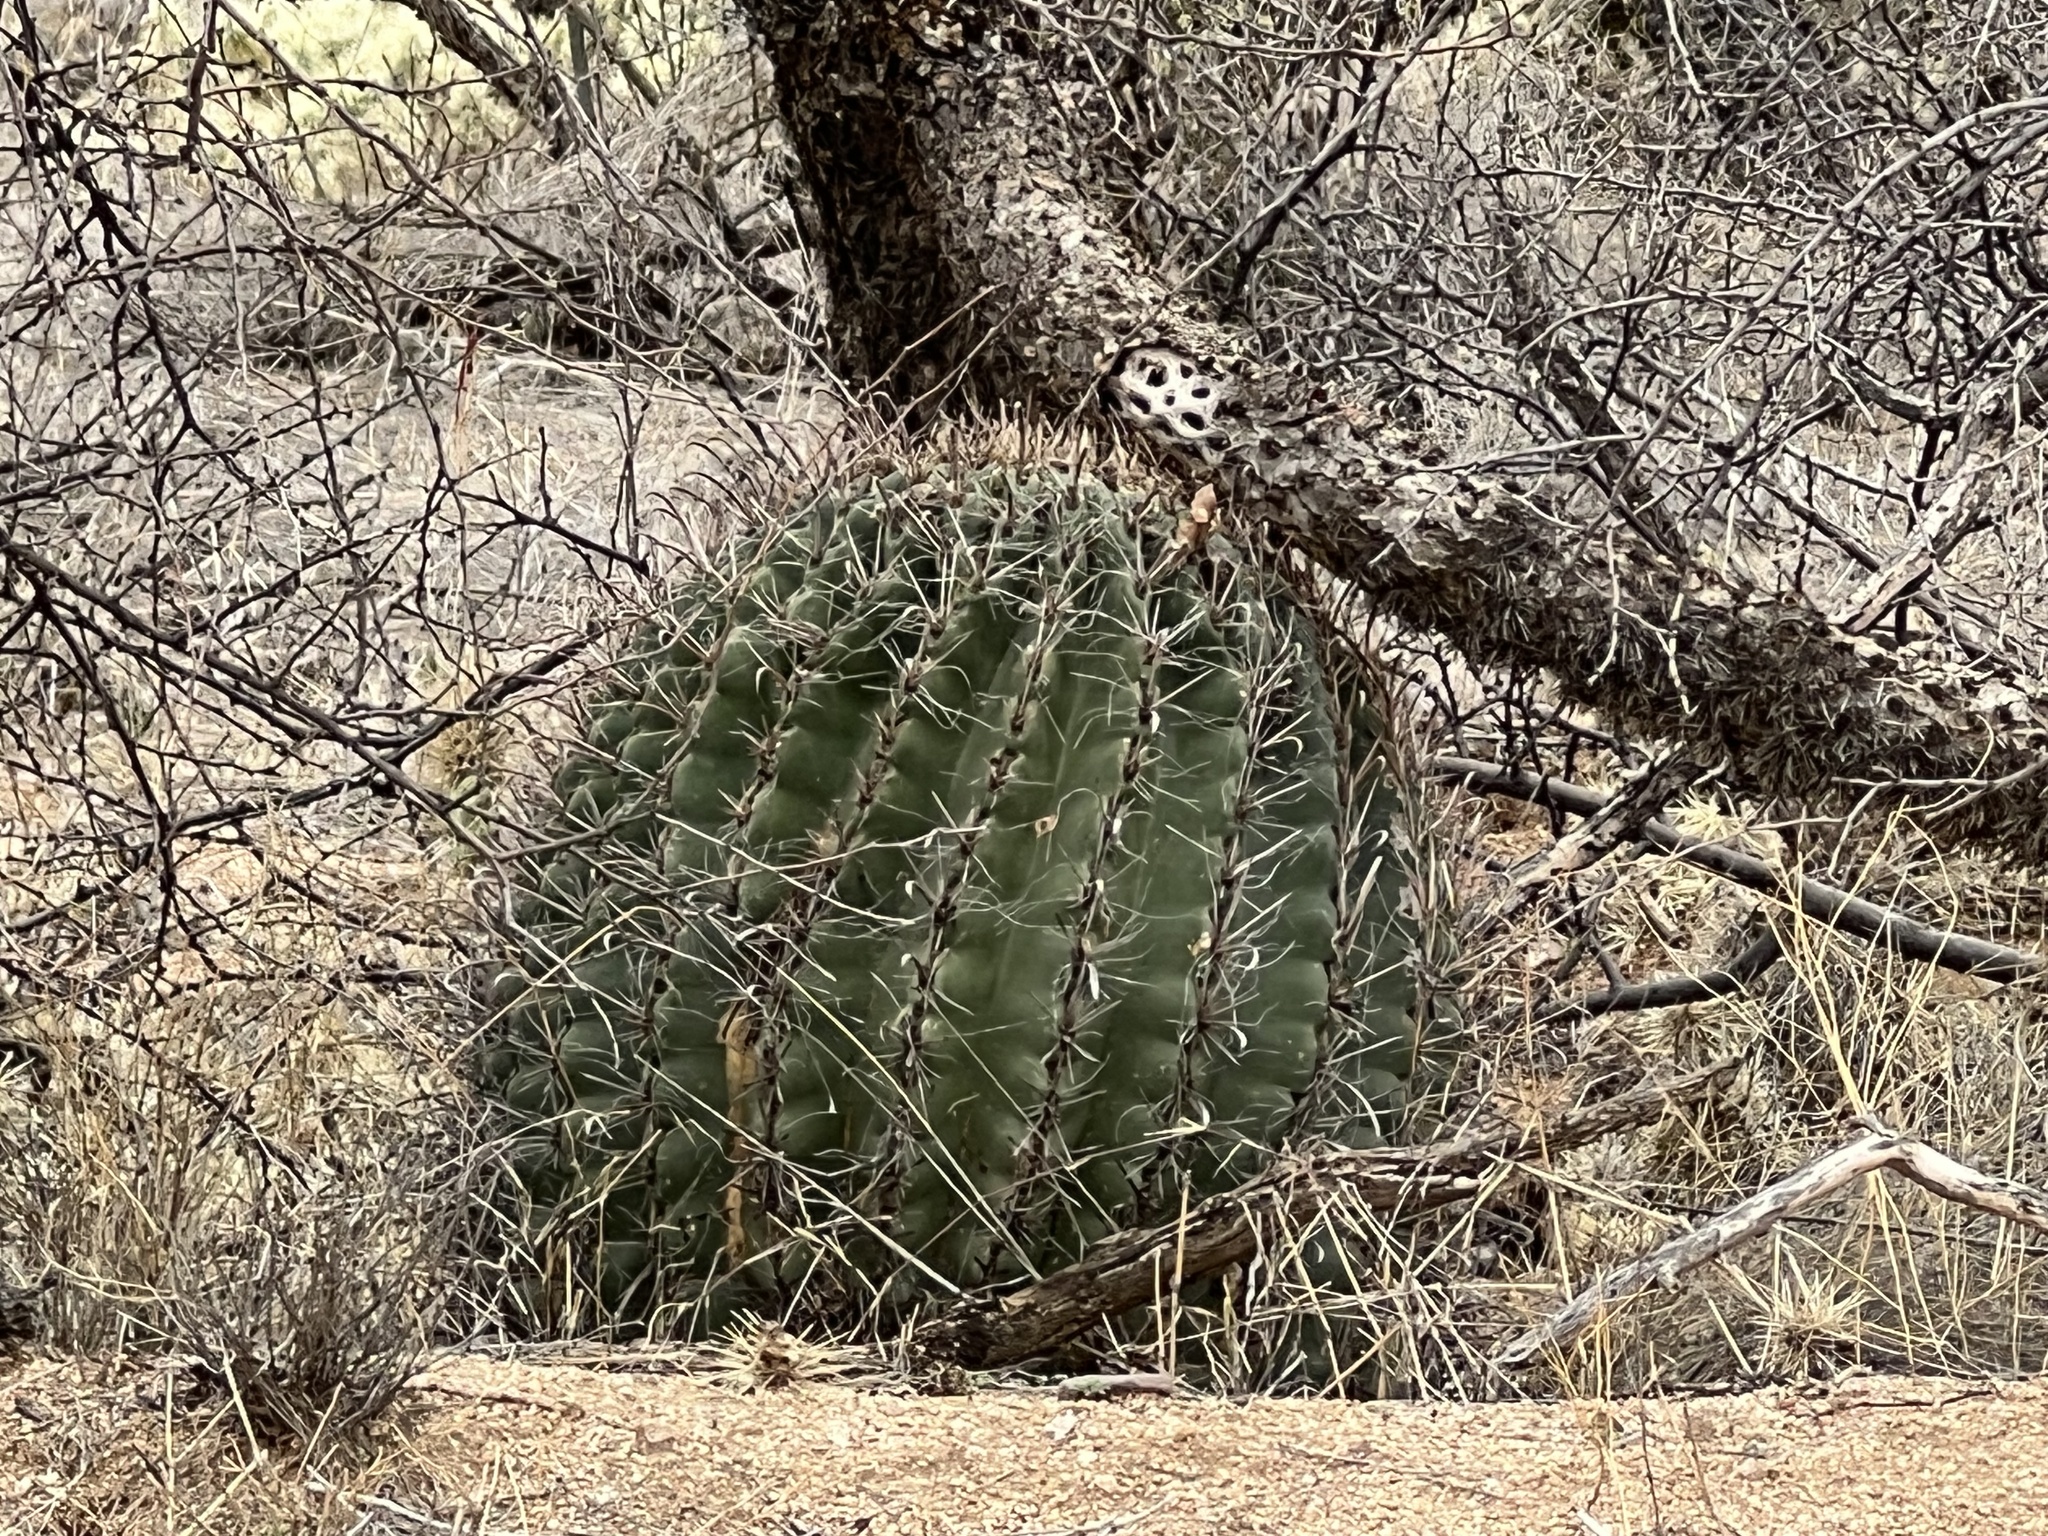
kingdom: Plantae
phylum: Tracheophyta
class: Magnoliopsida
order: Caryophyllales
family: Cactaceae
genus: Ferocactus
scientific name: Ferocactus wislizeni
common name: Candy barrel cactus
